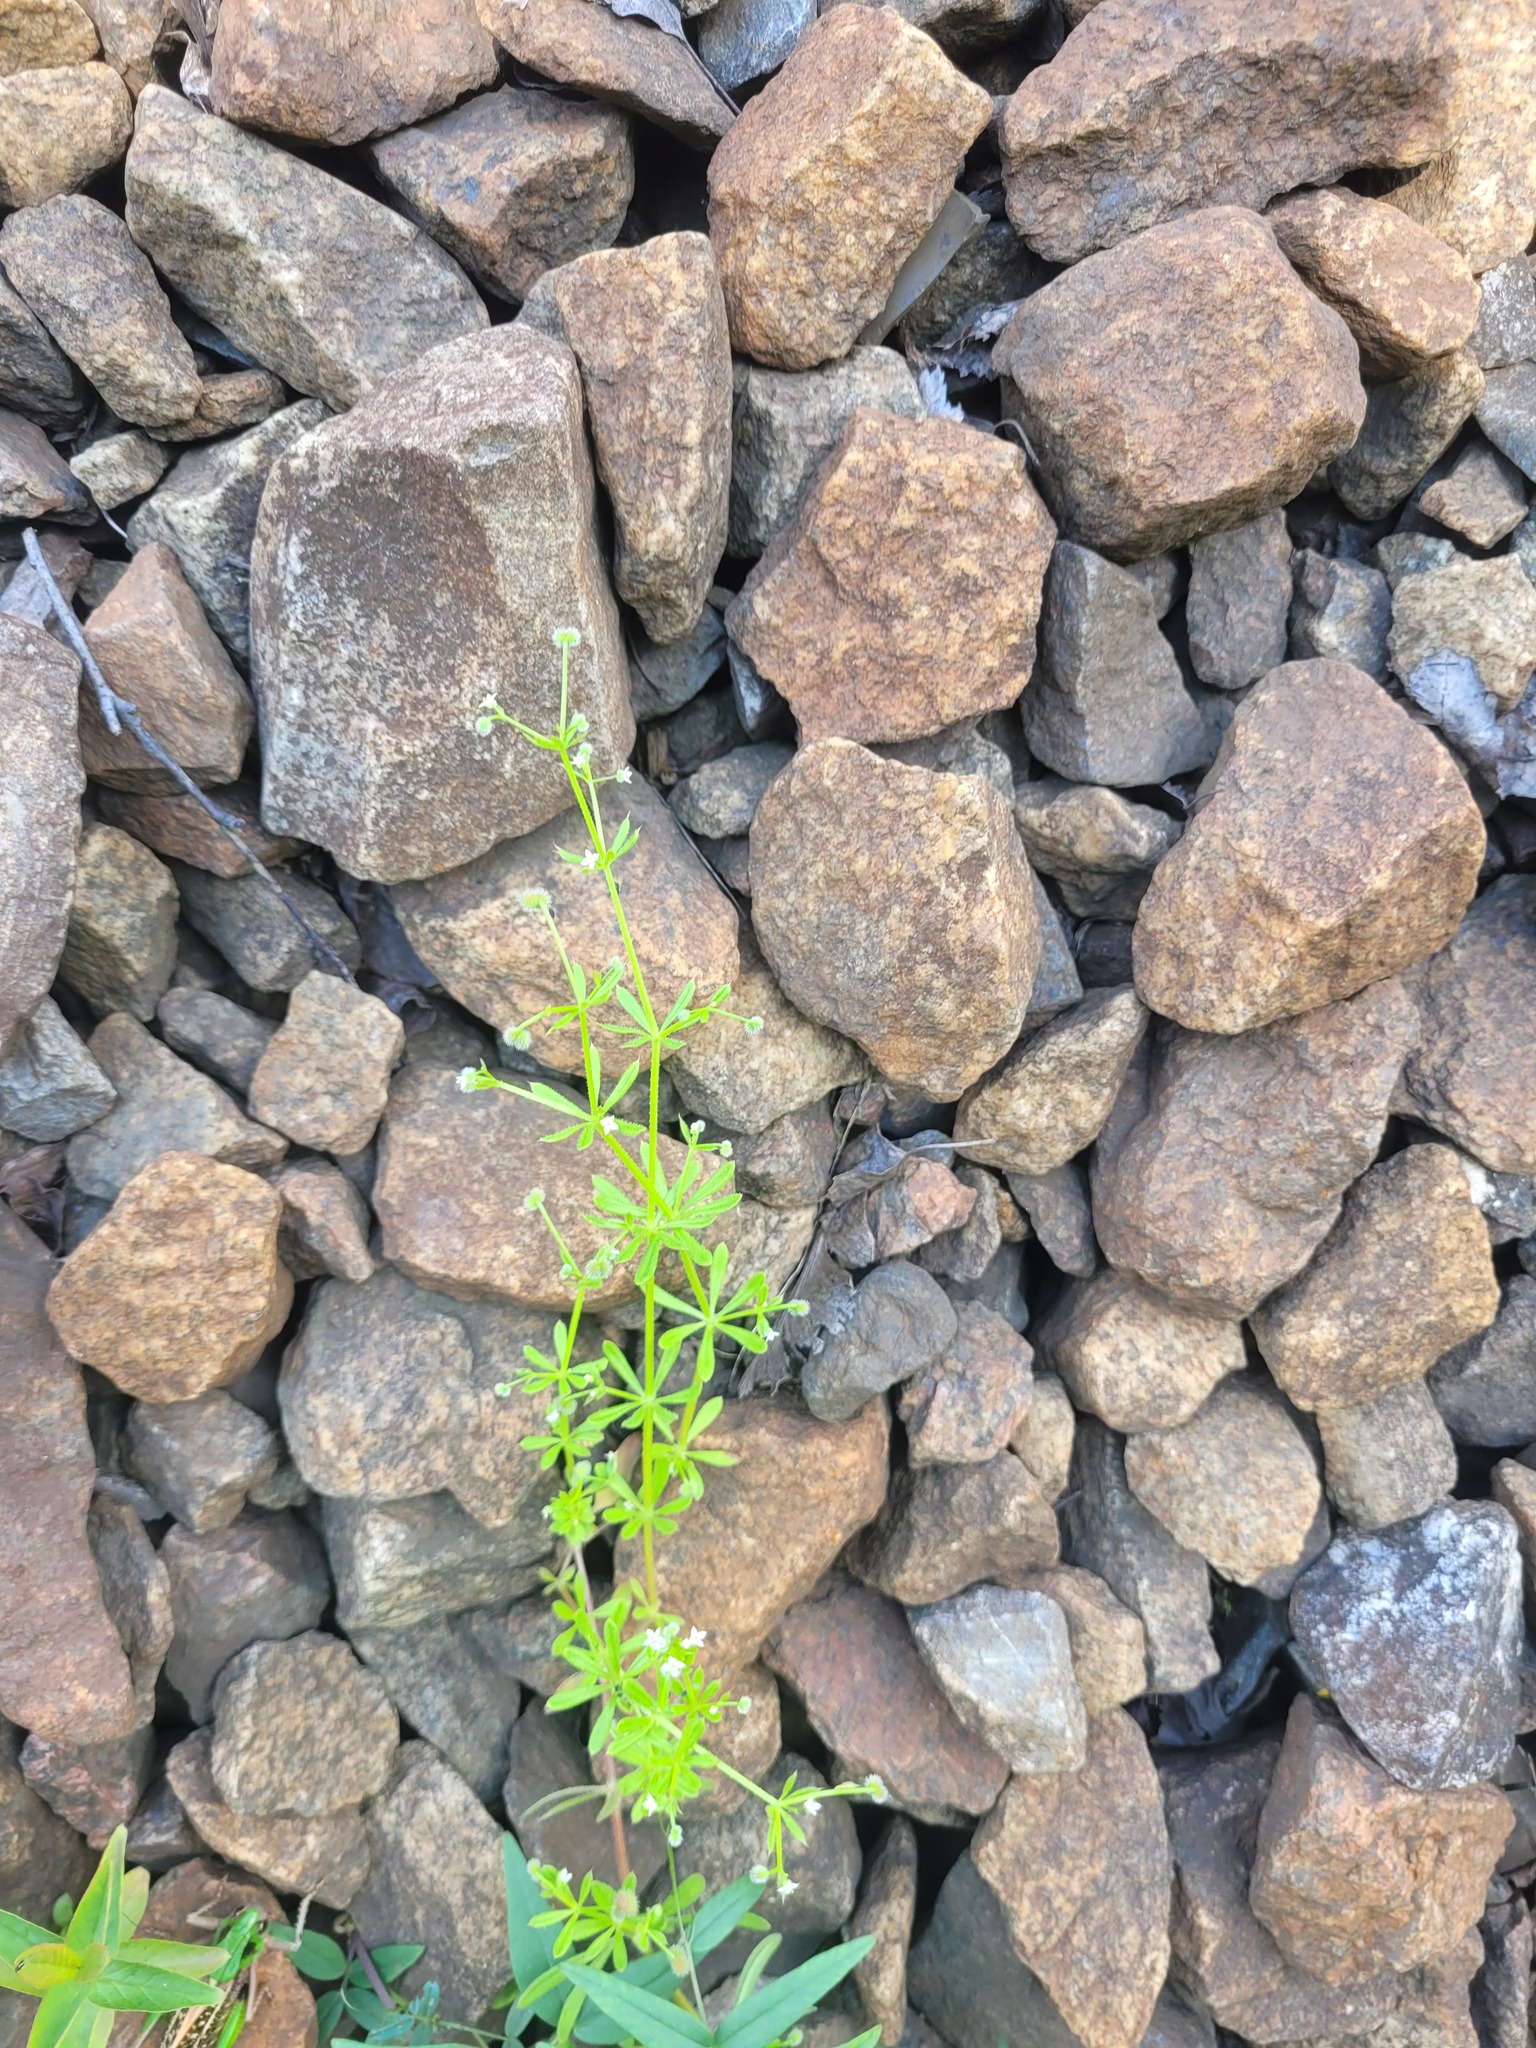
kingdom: Plantae
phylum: Tracheophyta
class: Magnoliopsida
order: Gentianales
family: Rubiaceae
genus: Galium
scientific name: Galium aparine
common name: Cleavers
